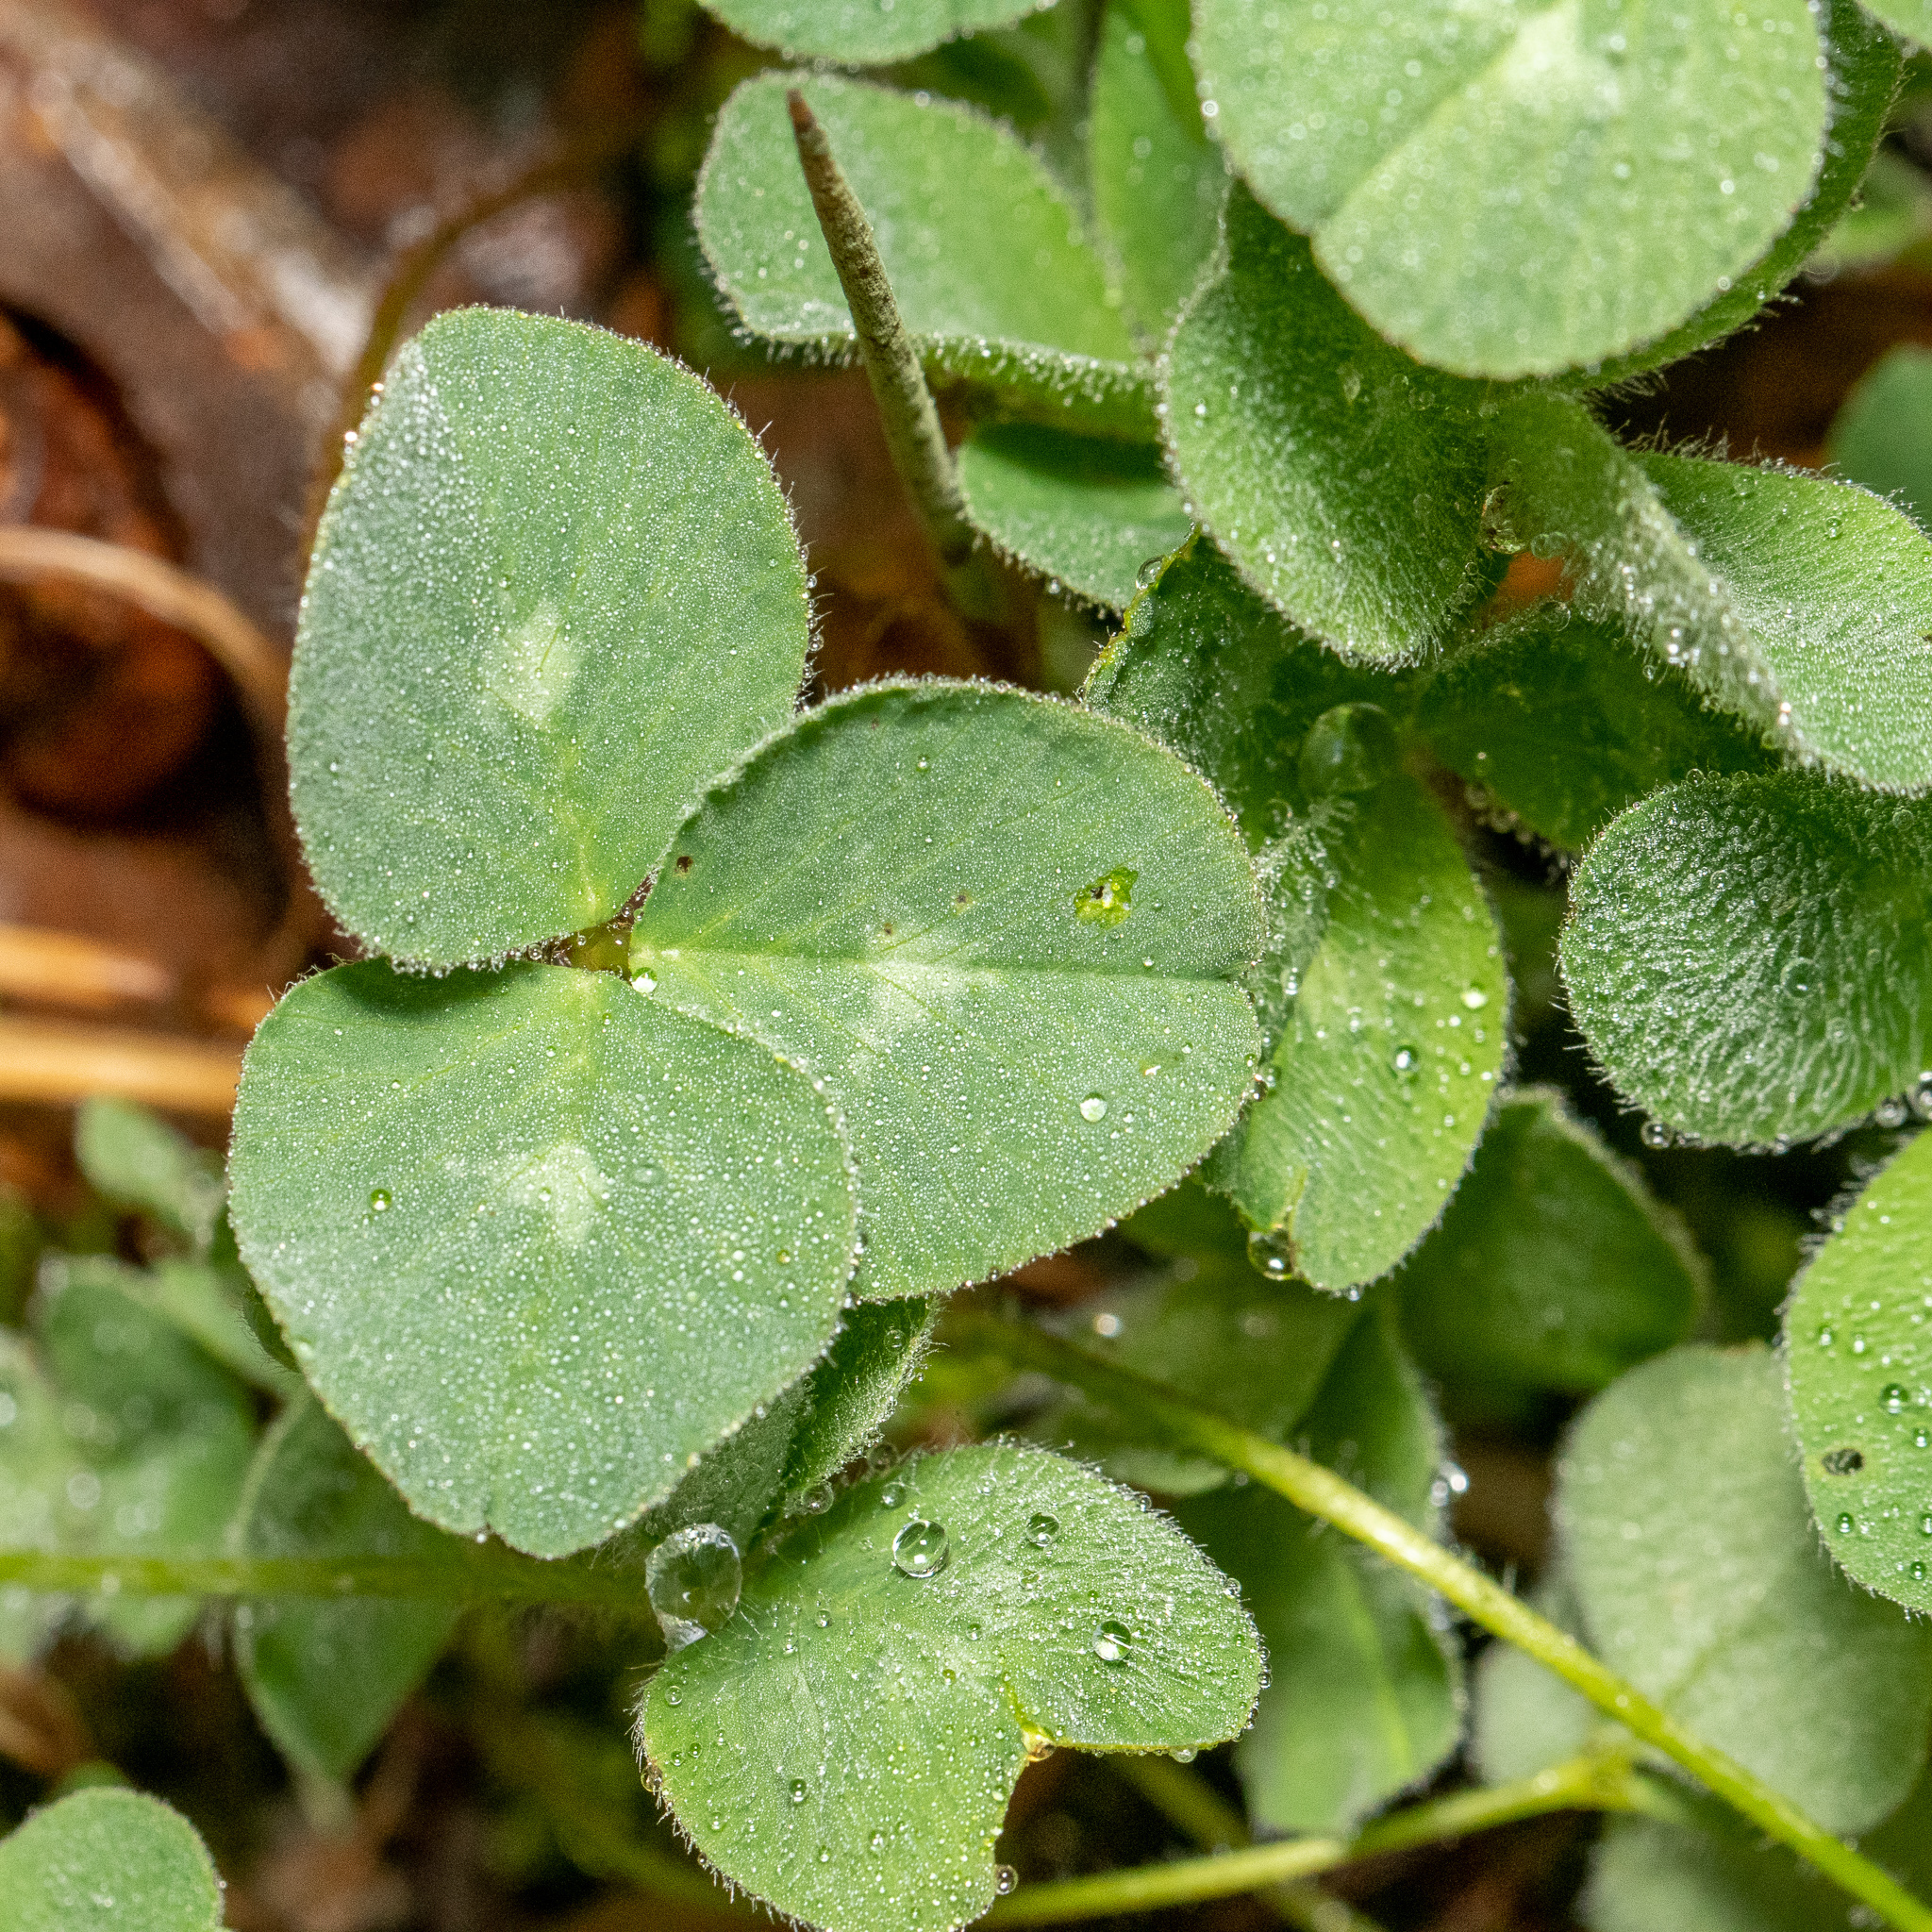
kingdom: Plantae
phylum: Tracheophyta
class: Magnoliopsida
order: Fabales
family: Fabaceae
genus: Trifolium
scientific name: Trifolium hybridum
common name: Alsike clover
